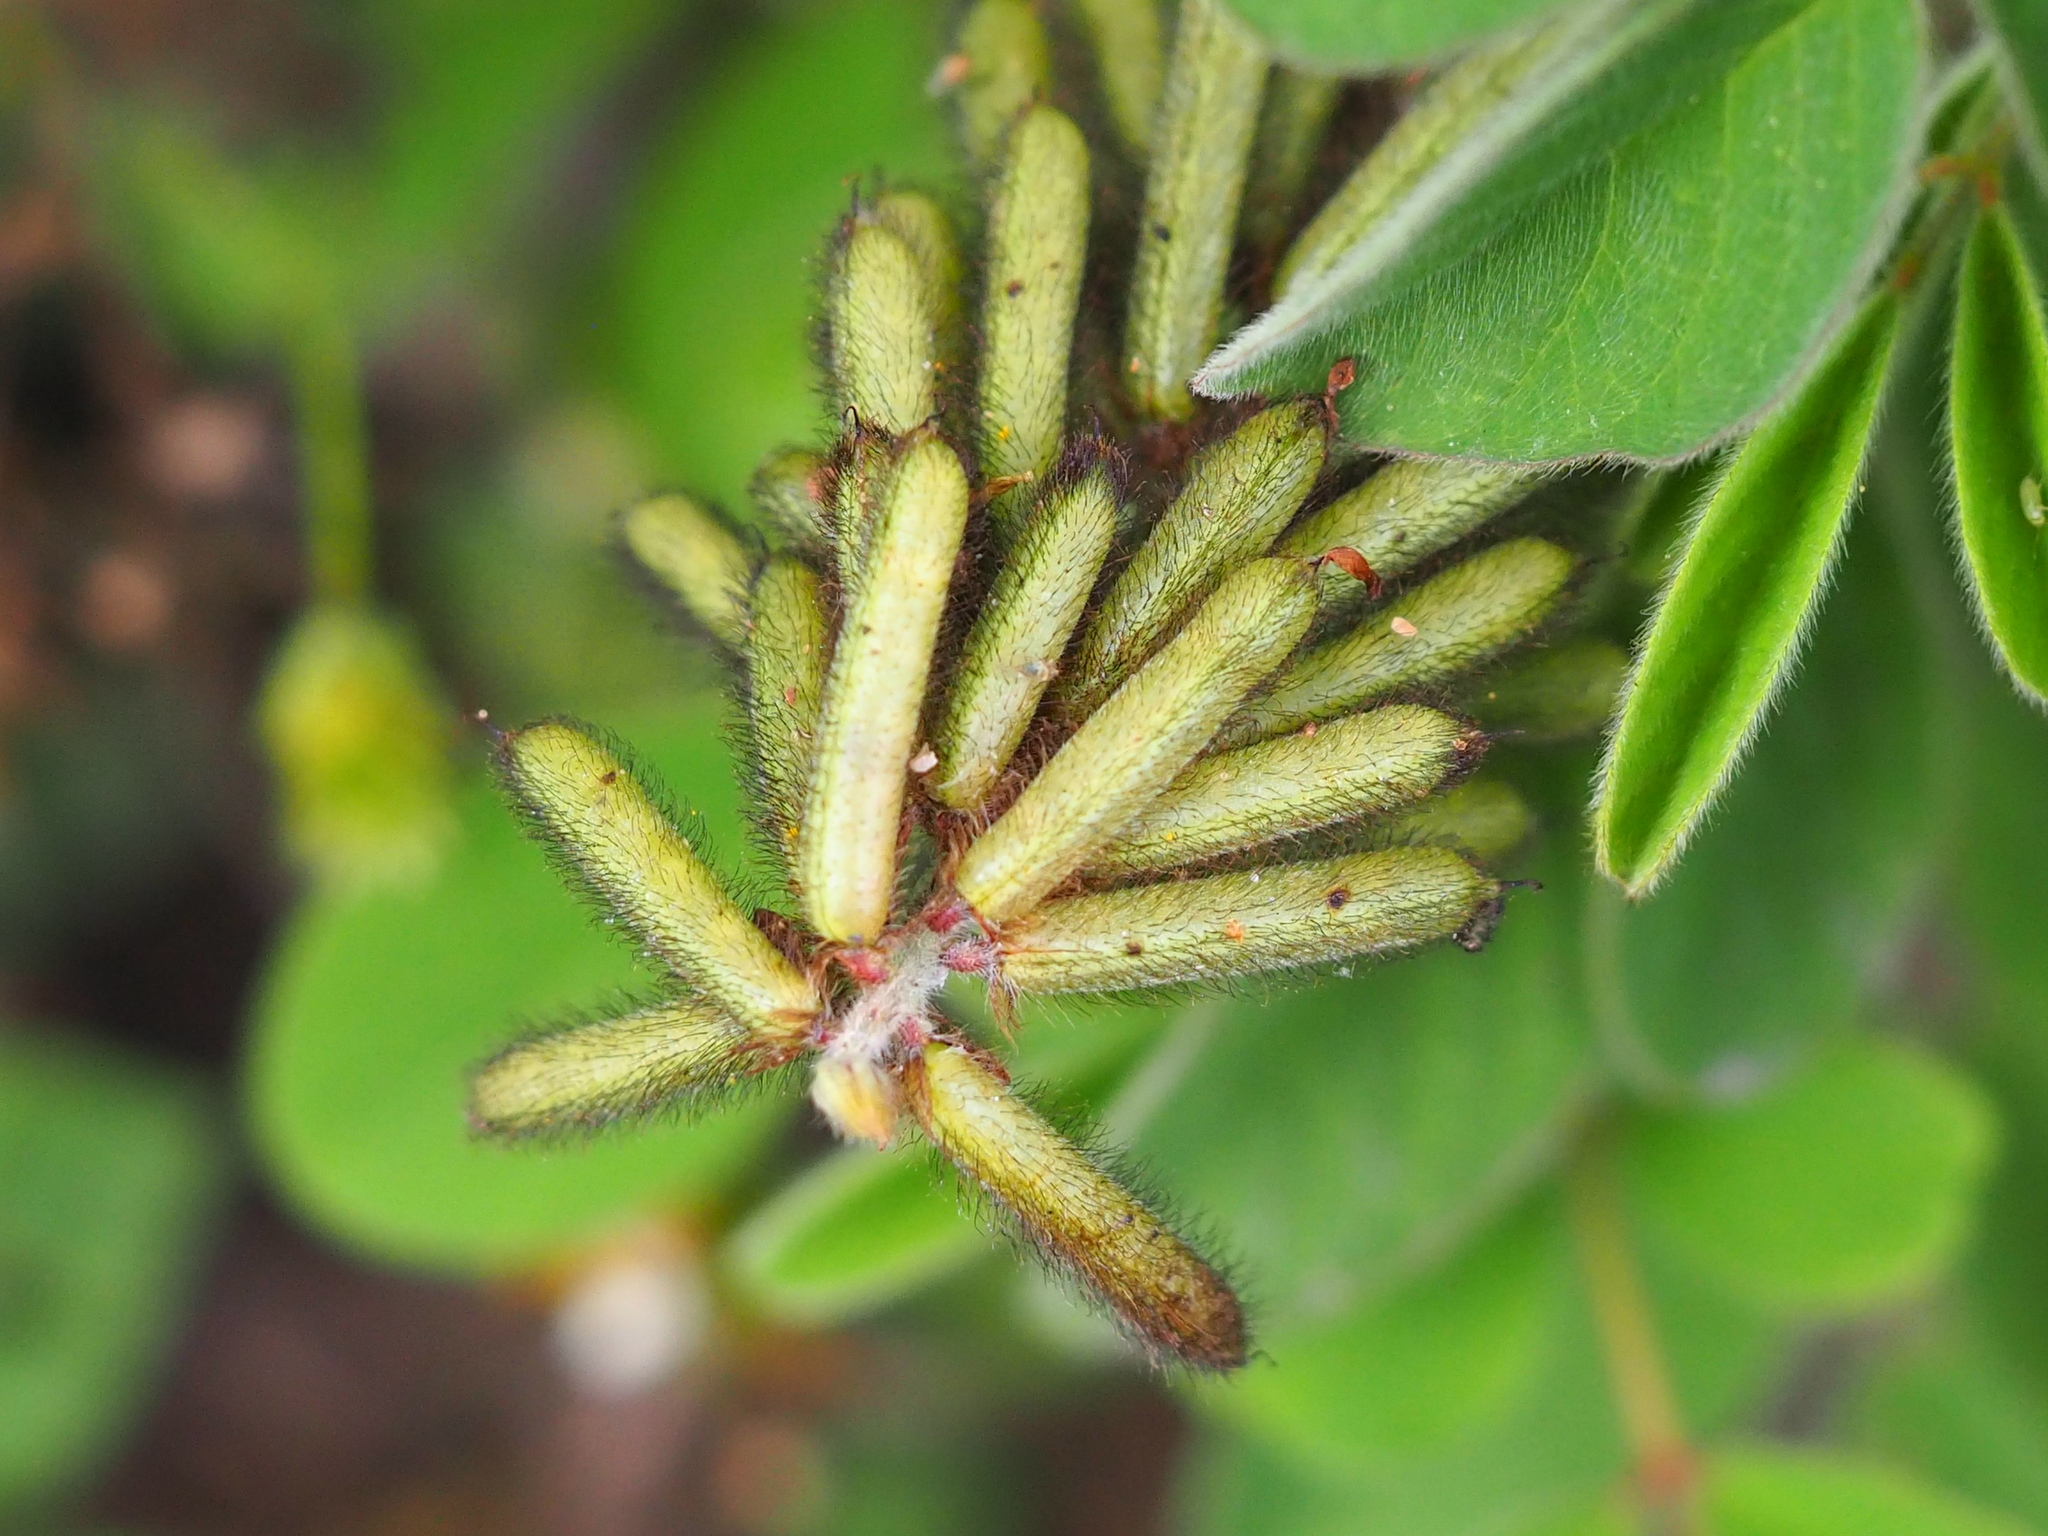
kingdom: Plantae
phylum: Tracheophyta
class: Magnoliopsida
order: Fabales
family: Fabaceae
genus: Indigofera
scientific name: Indigofera hirsuta
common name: Hairy indigo
